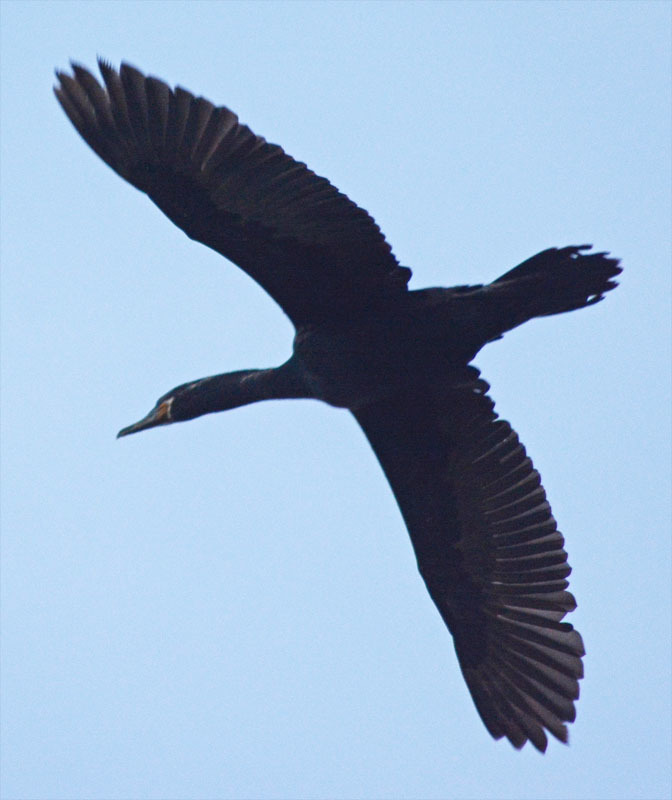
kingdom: Animalia
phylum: Chordata
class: Aves
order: Suliformes
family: Phalacrocoracidae
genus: Phalacrocorax
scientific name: Phalacrocorax brasilianus
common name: Neotropic cormorant
